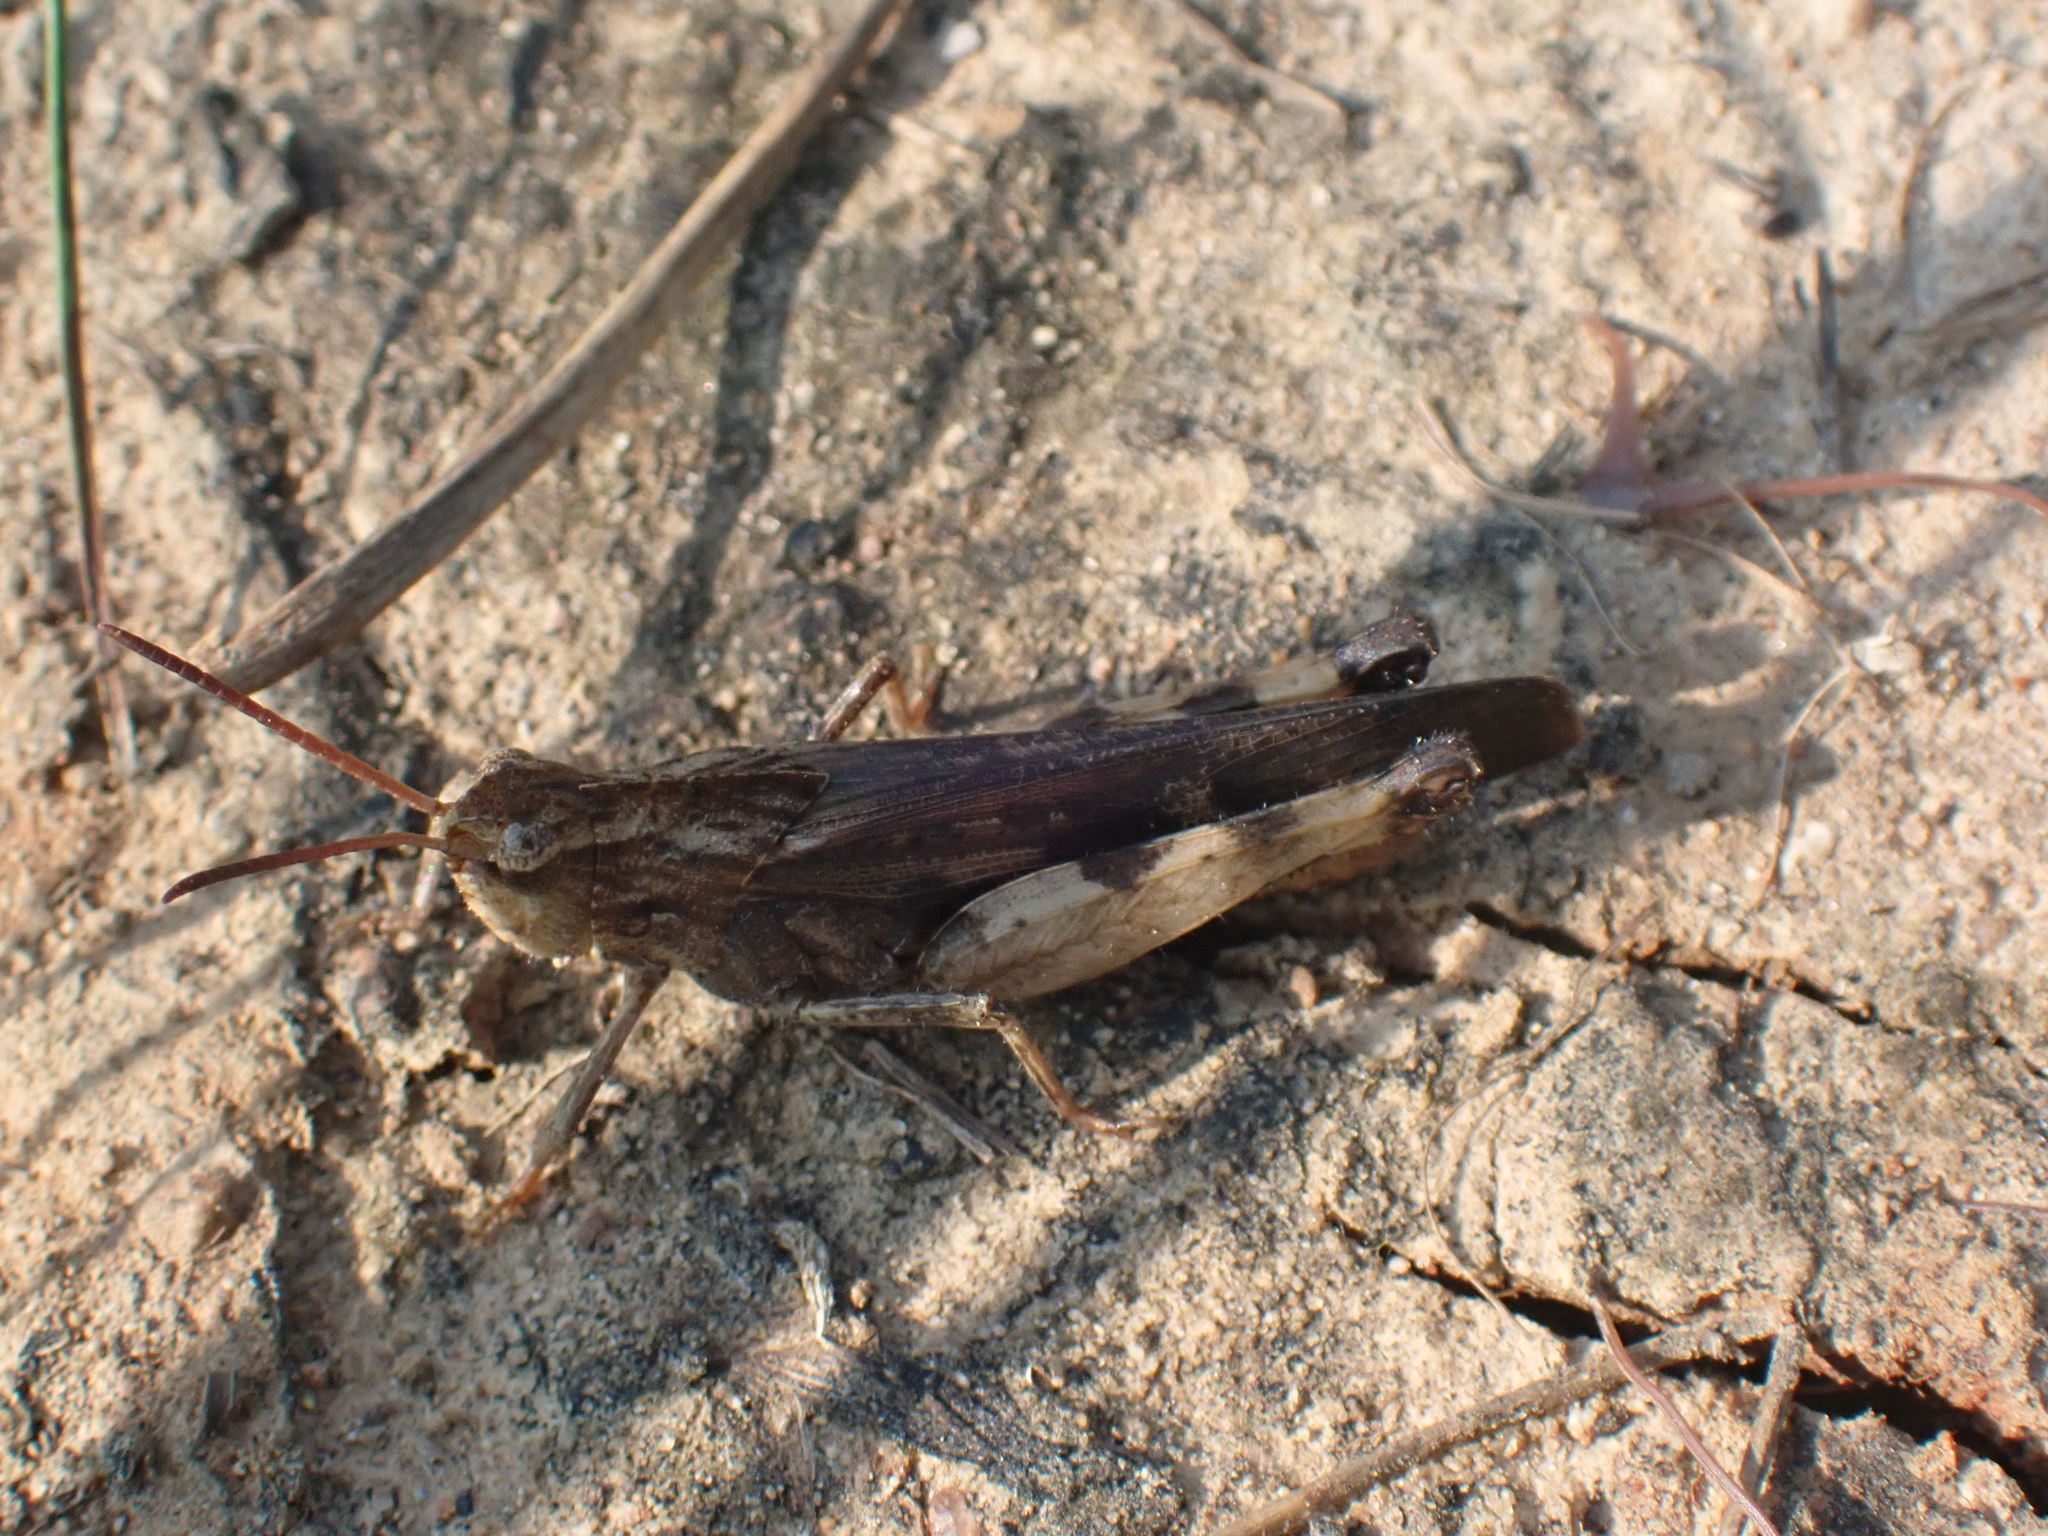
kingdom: Animalia
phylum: Arthropoda
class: Insecta
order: Orthoptera
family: Acrididae
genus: Chortophaga
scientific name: Chortophaga viridifasciata
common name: Green-striped grasshopper
